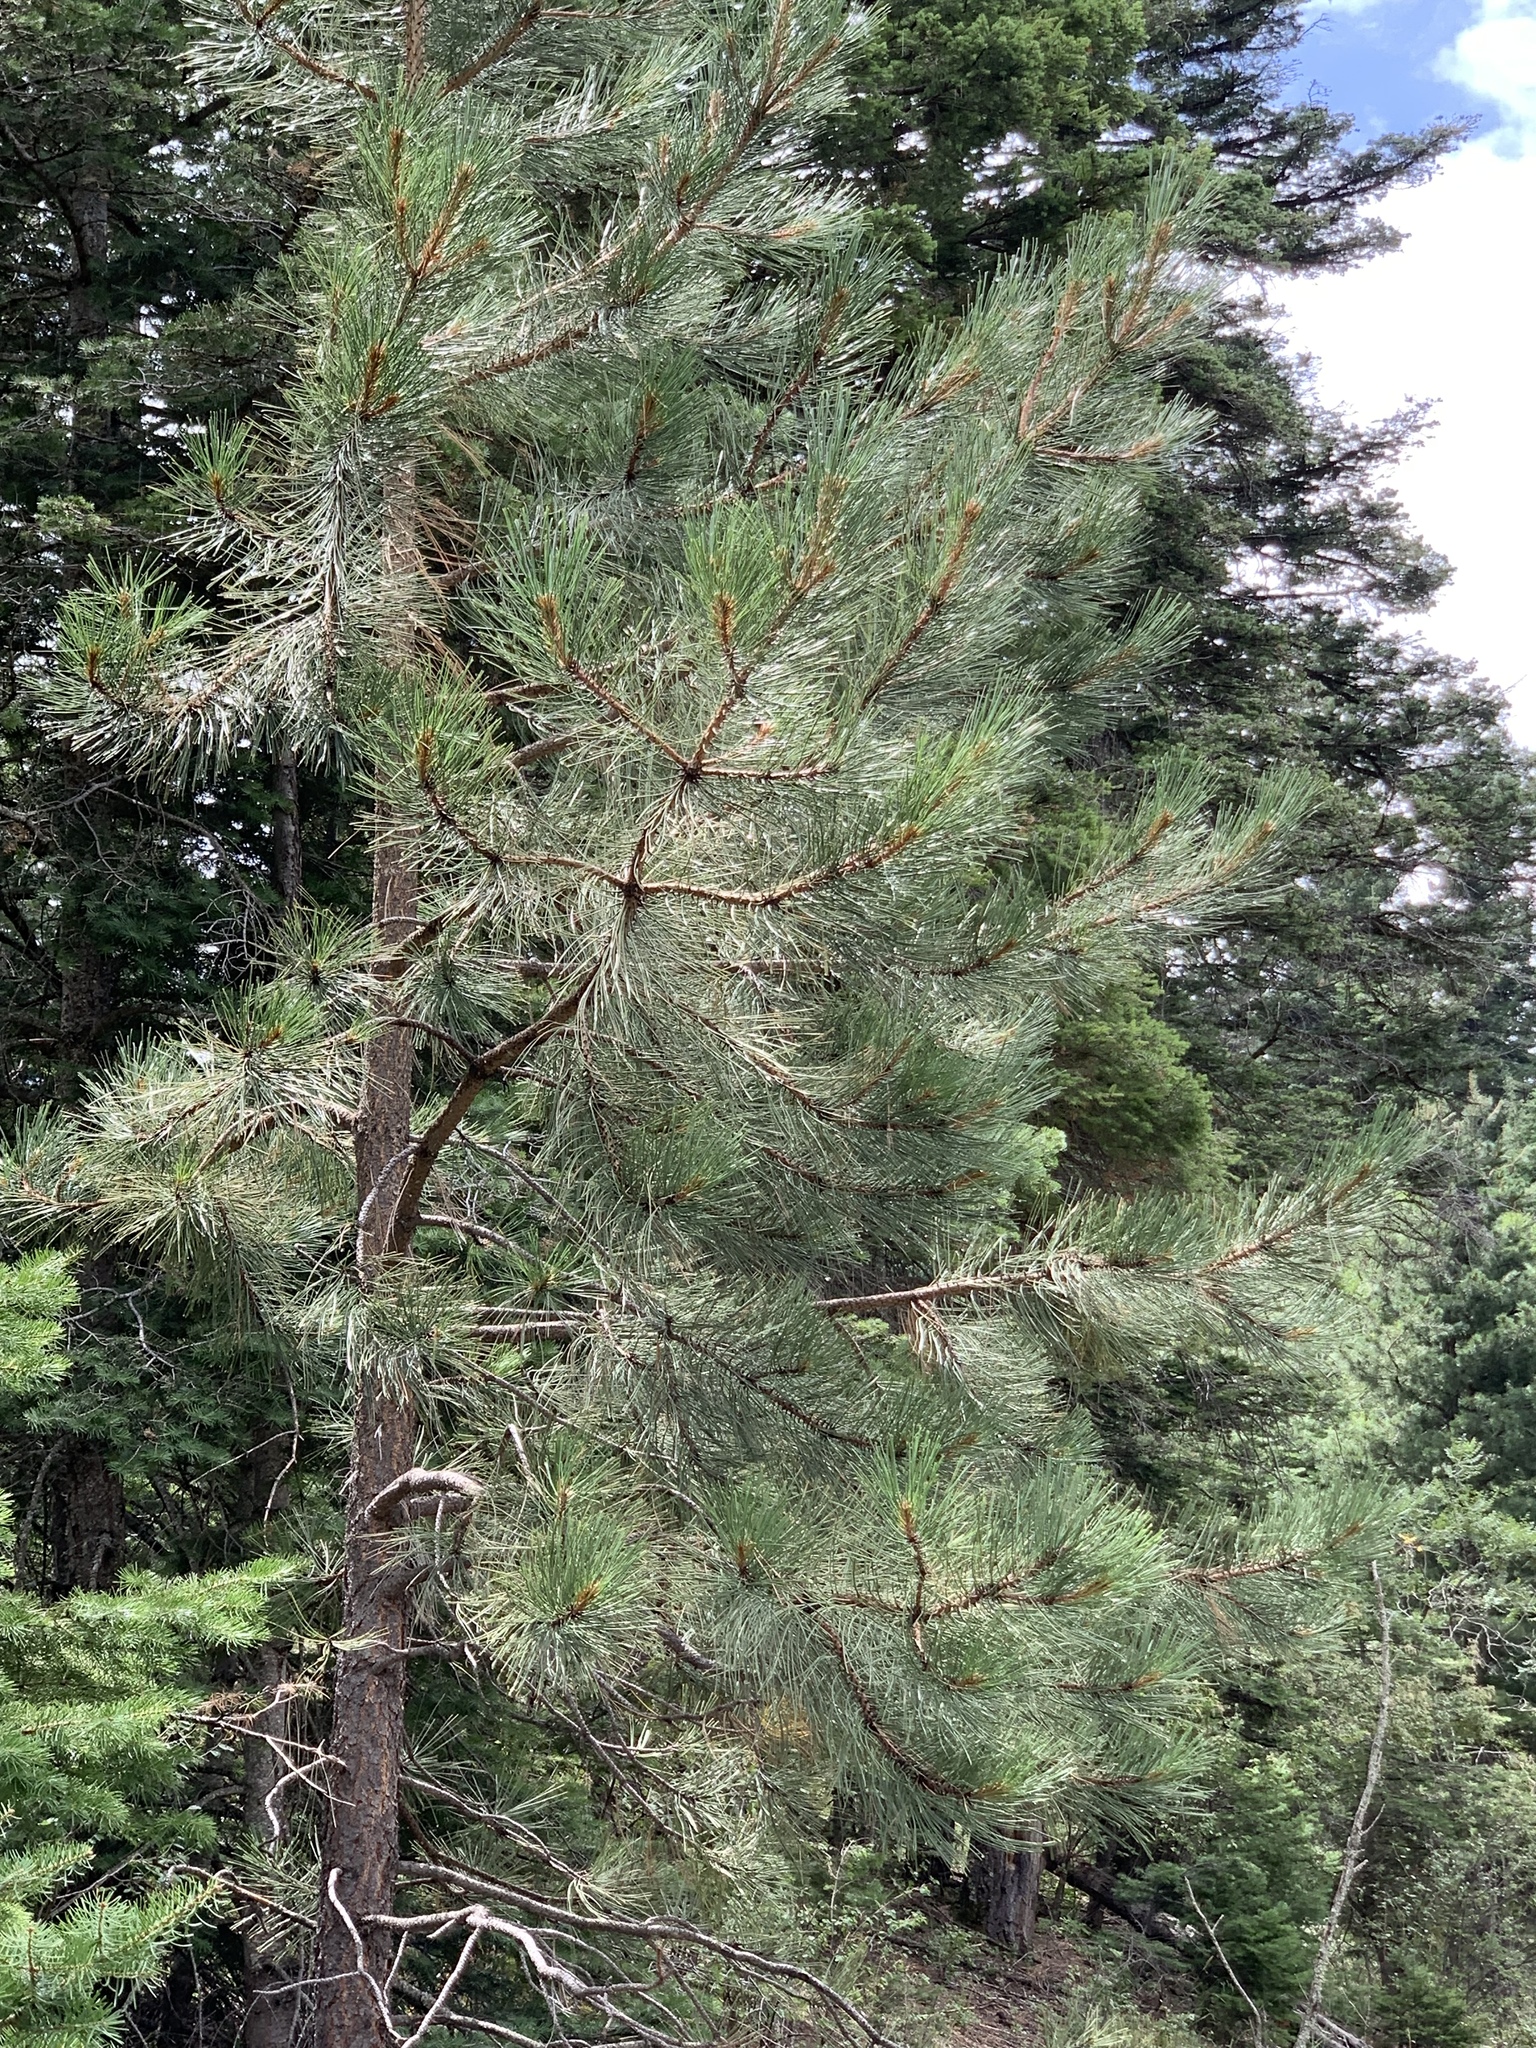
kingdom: Plantae
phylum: Tracheophyta
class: Pinopsida
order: Pinales
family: Pinaceae
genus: Pinus
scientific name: Pinus ponderosa
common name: Western yellow-pine
